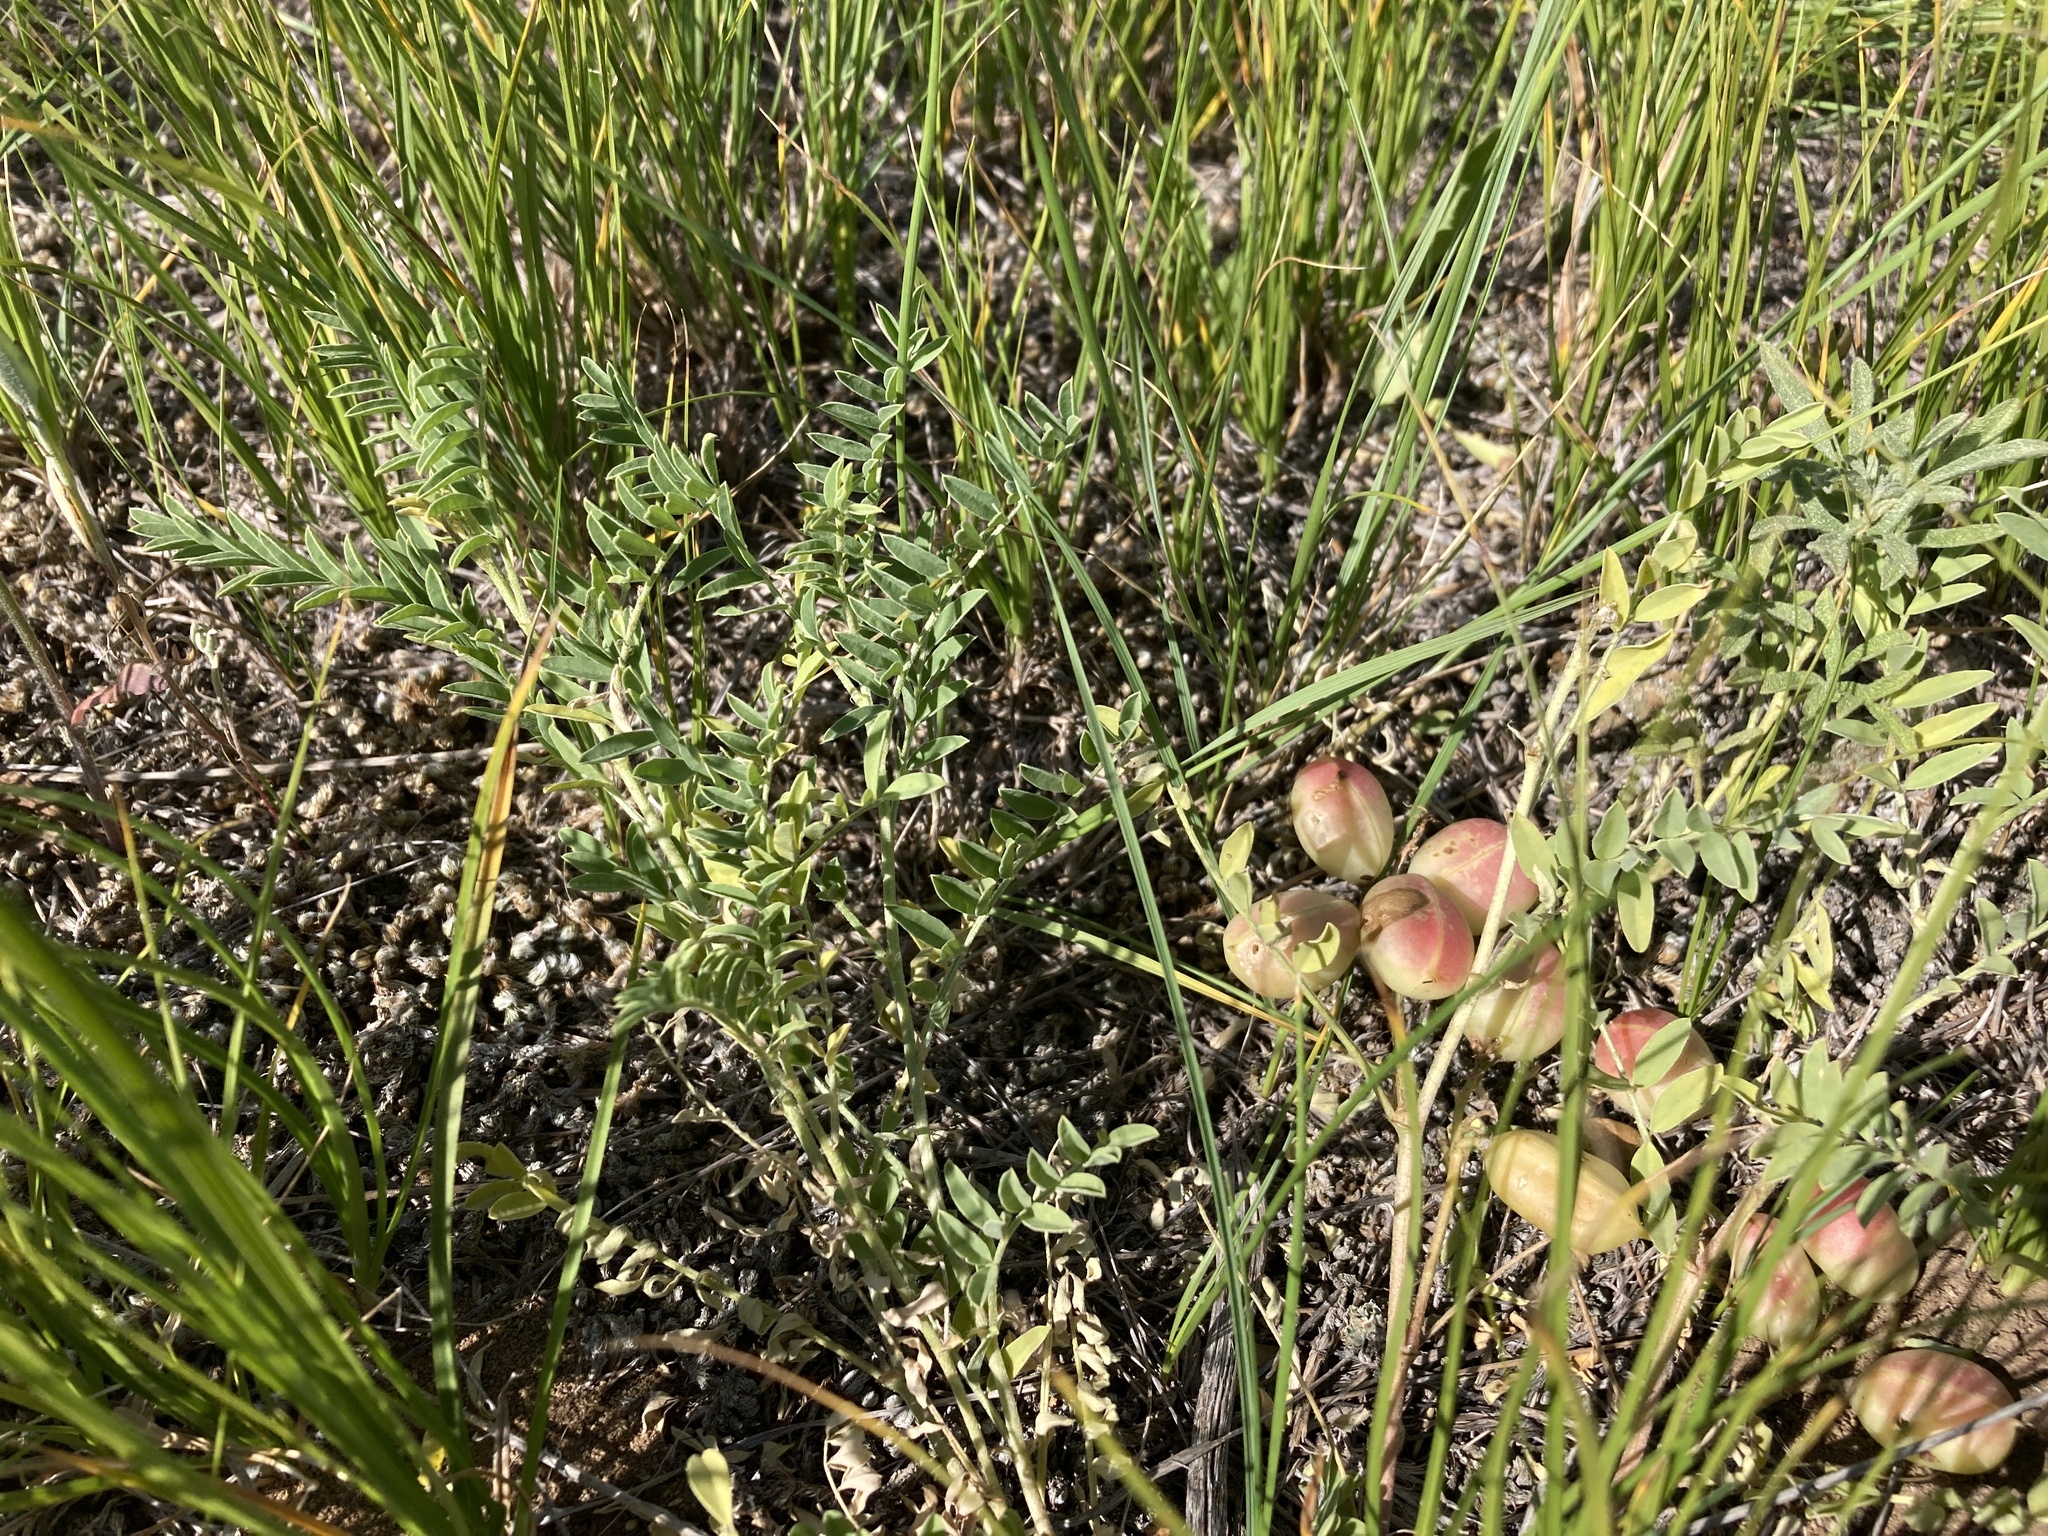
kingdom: Plantae
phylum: Tracheophyta
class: Magnoliopsida
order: Fabales
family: Fabaceae
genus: Astragalus
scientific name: Astragalus crassicarpus
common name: Ground-plum milk-vetch
